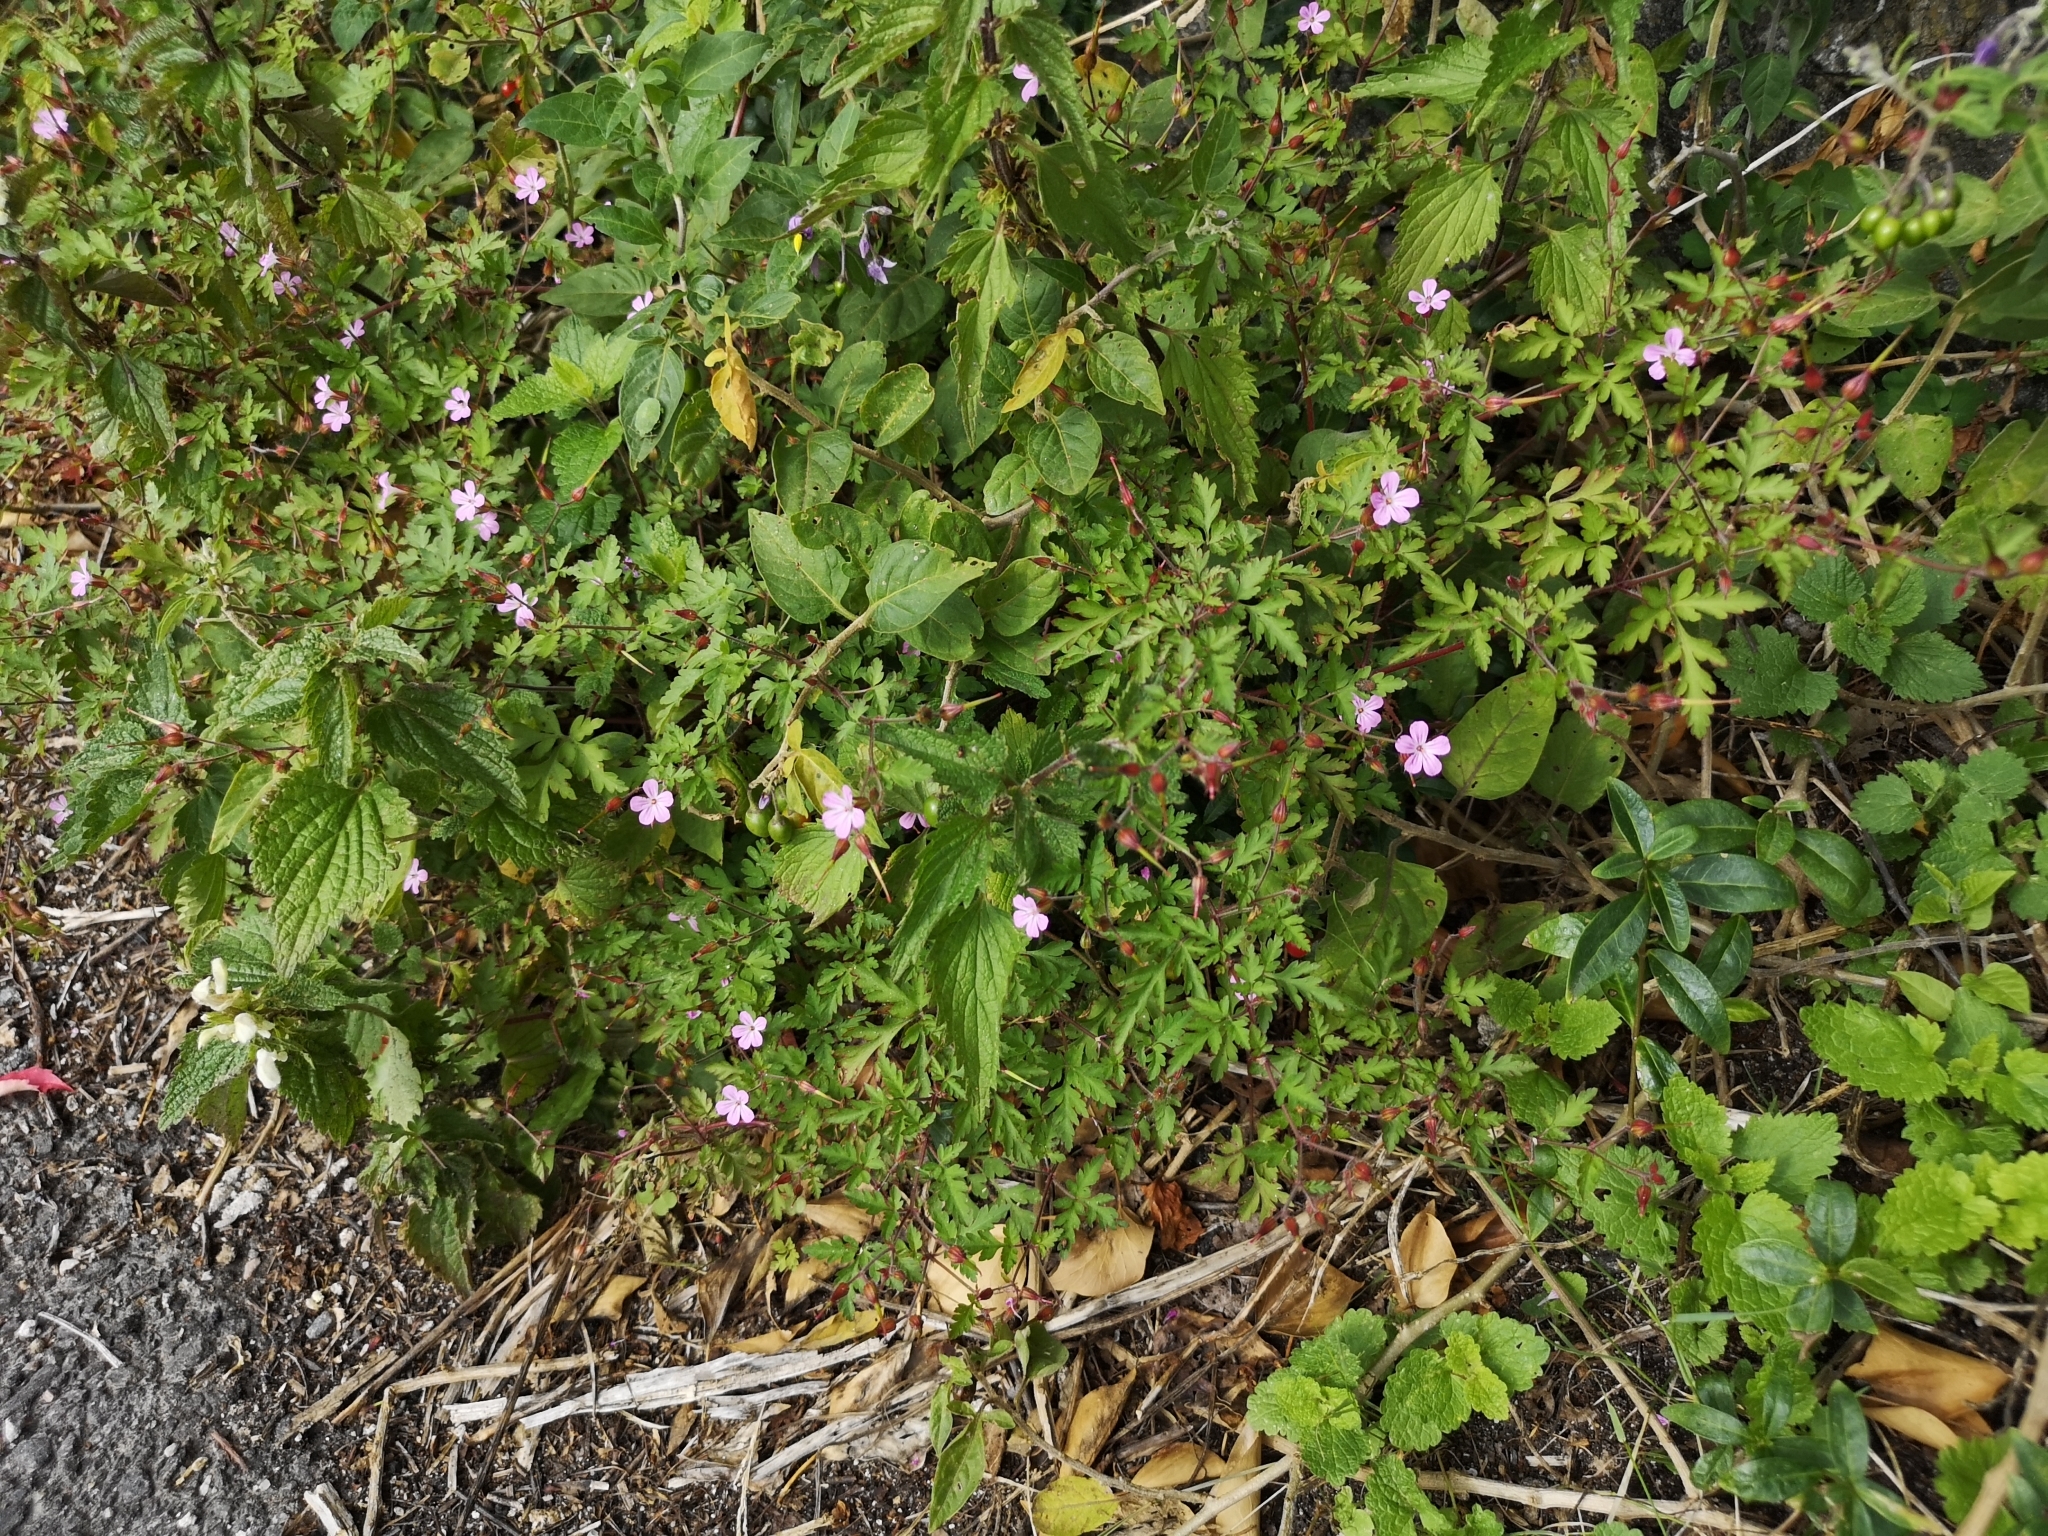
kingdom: Plantae
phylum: Tracheophyta
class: Magnoliopsida
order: Geraniales
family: Geraniaceae
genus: Geranium
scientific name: Geranium robertianum
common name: Herb-robert
